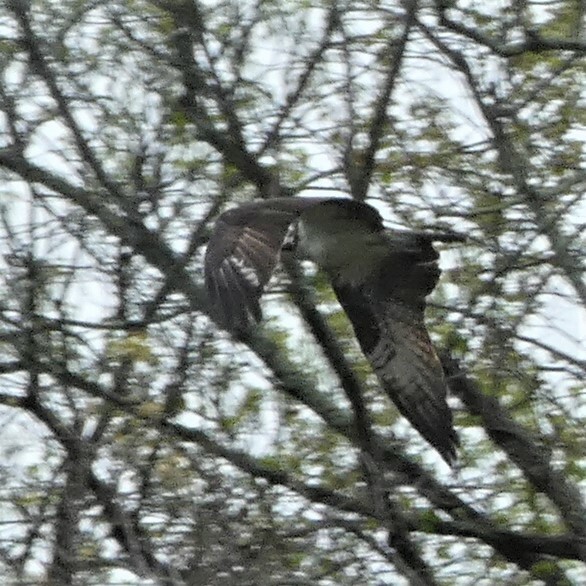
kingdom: Animalia
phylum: Chordata
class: Aves
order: Accipitriformes
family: Pandionidae
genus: Pandion
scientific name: Pandion haliaetus
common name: Osprey
